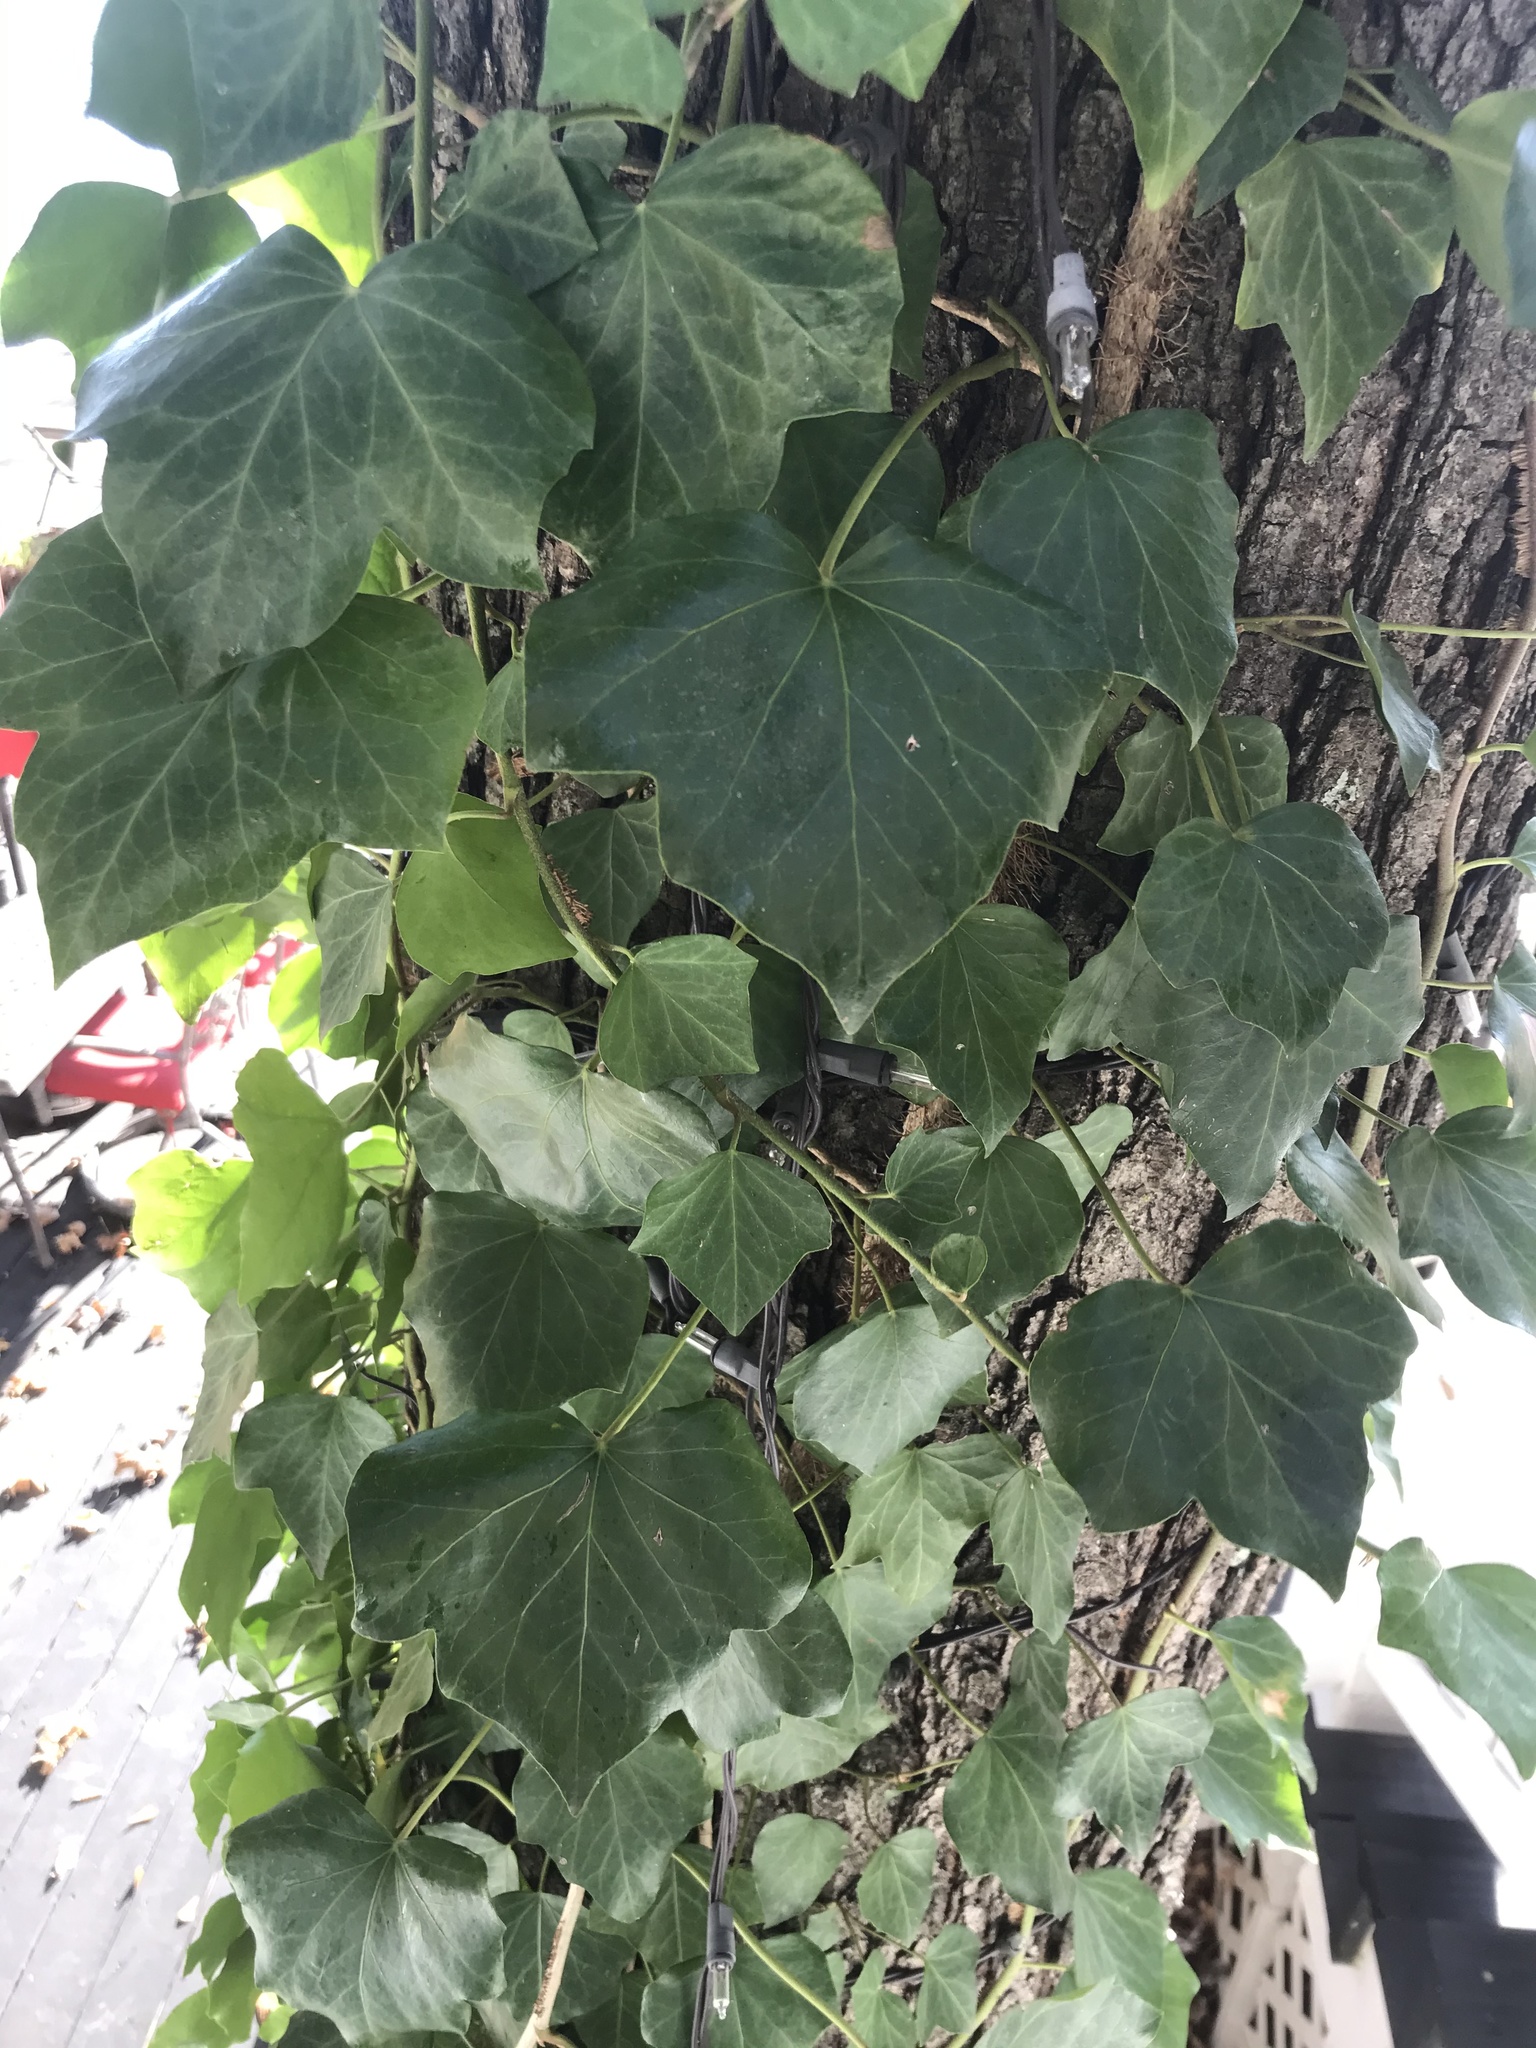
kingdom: Plantae
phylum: Tracheophyta
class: Magnoliopsida
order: Apiales
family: Araliaceae
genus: Hedera
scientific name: Hedera helix
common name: Ivy
